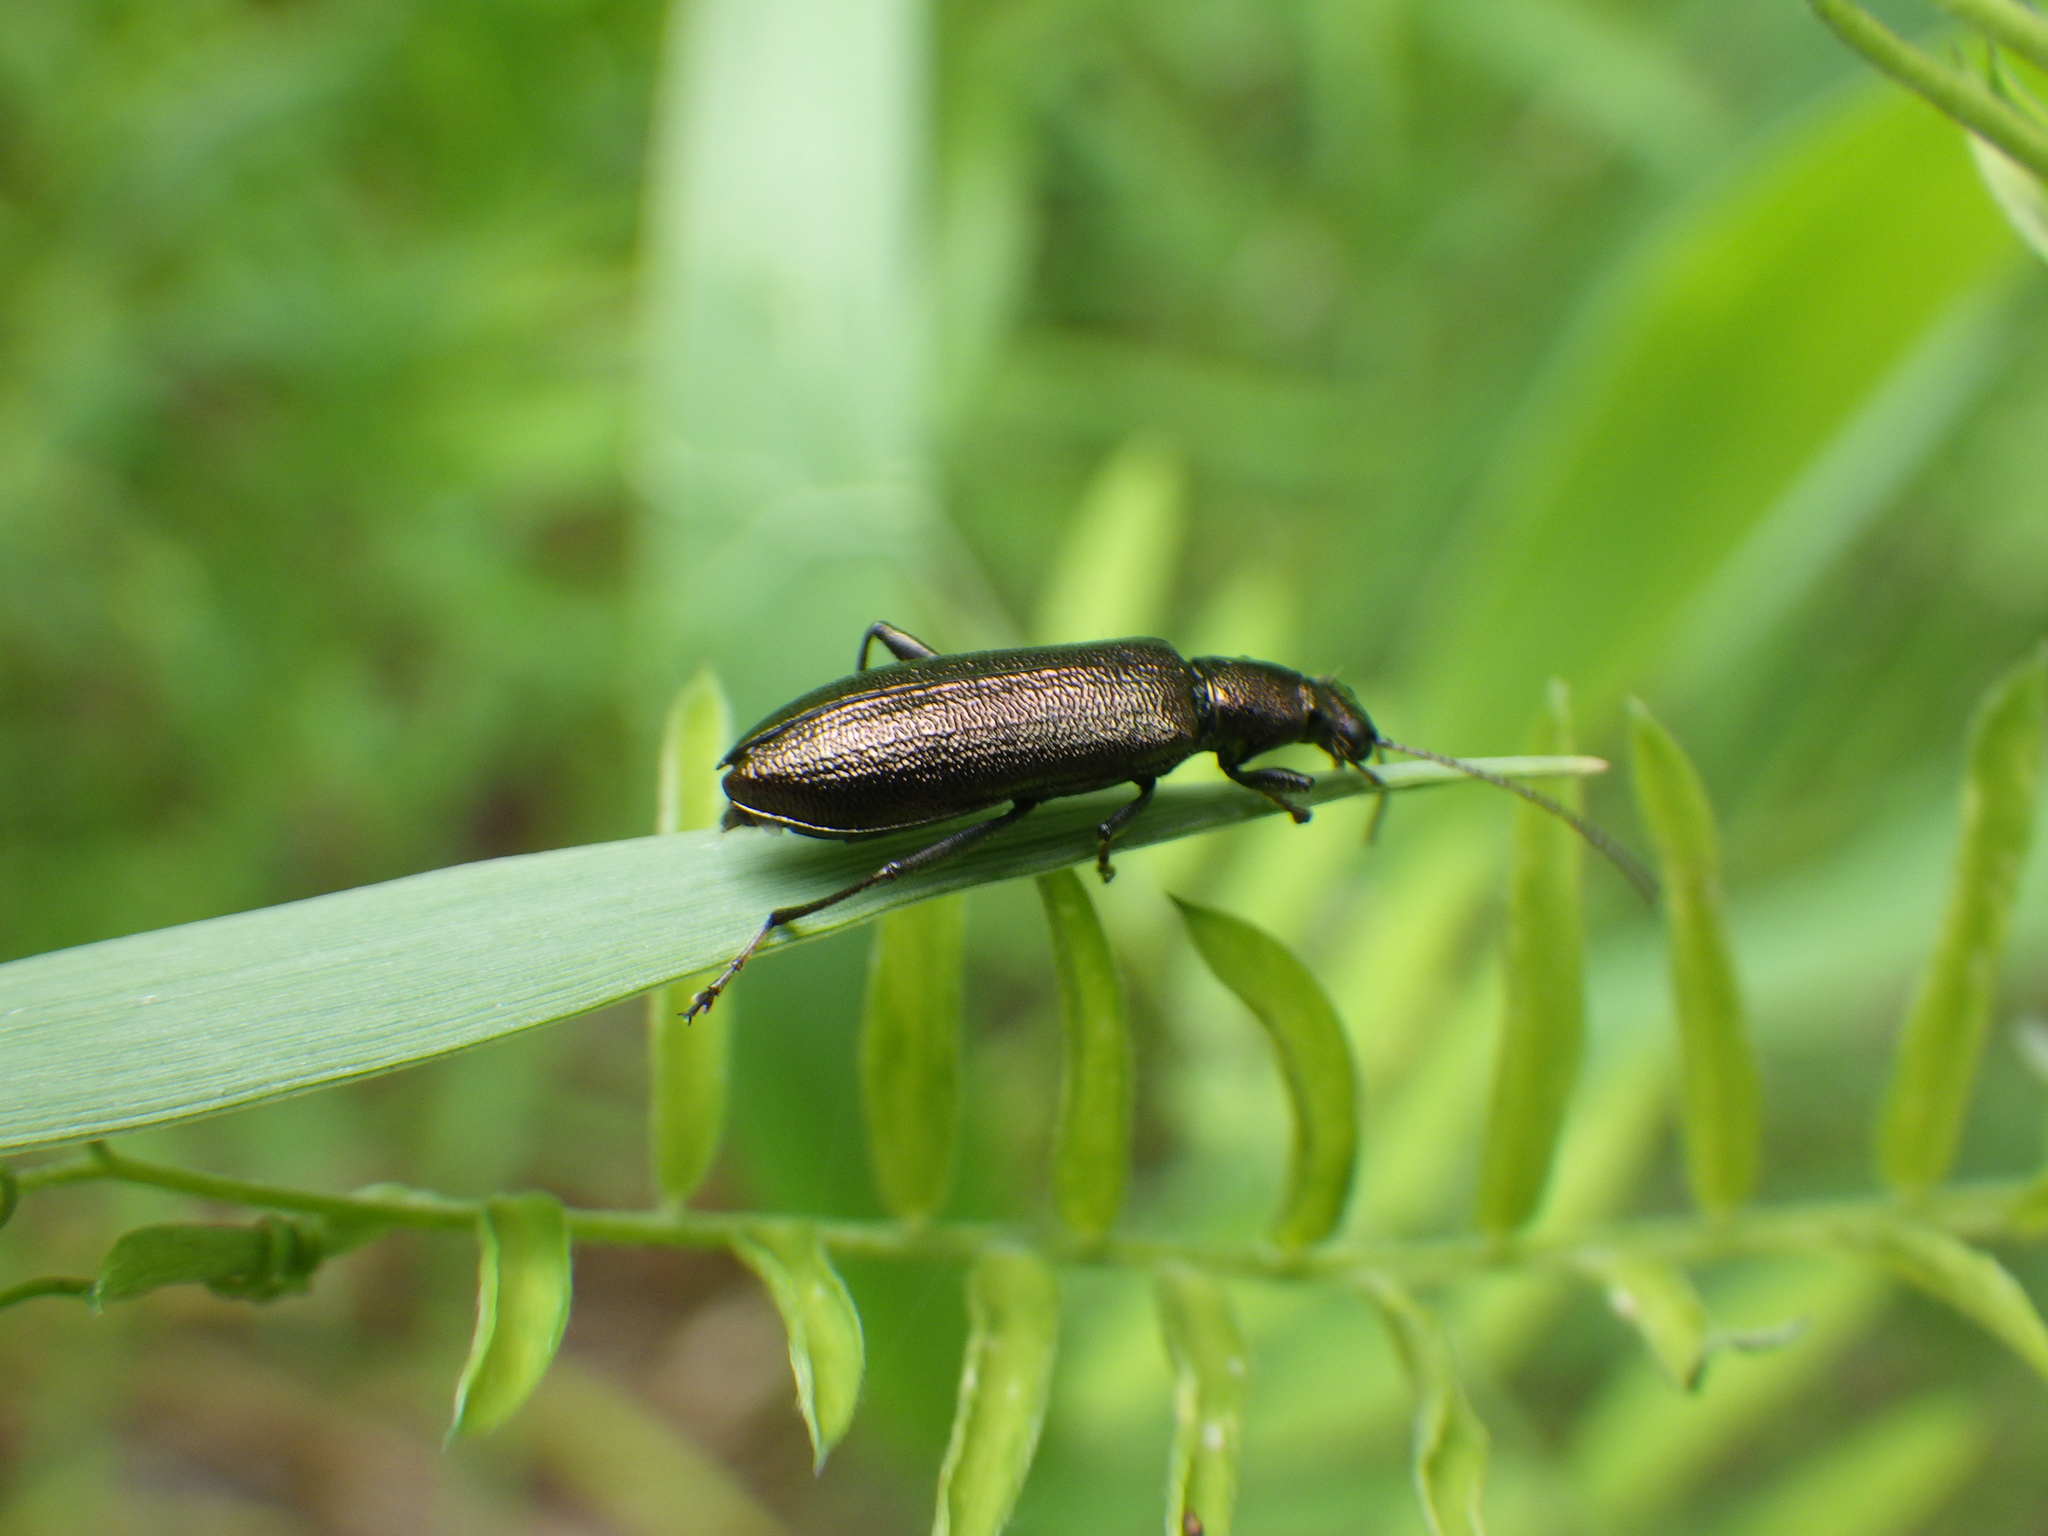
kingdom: Animalia
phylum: Arthropoda
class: Insecta
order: Coleoptera
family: Tenebrionidae
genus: Arthromacra
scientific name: Arthromacra aenea
